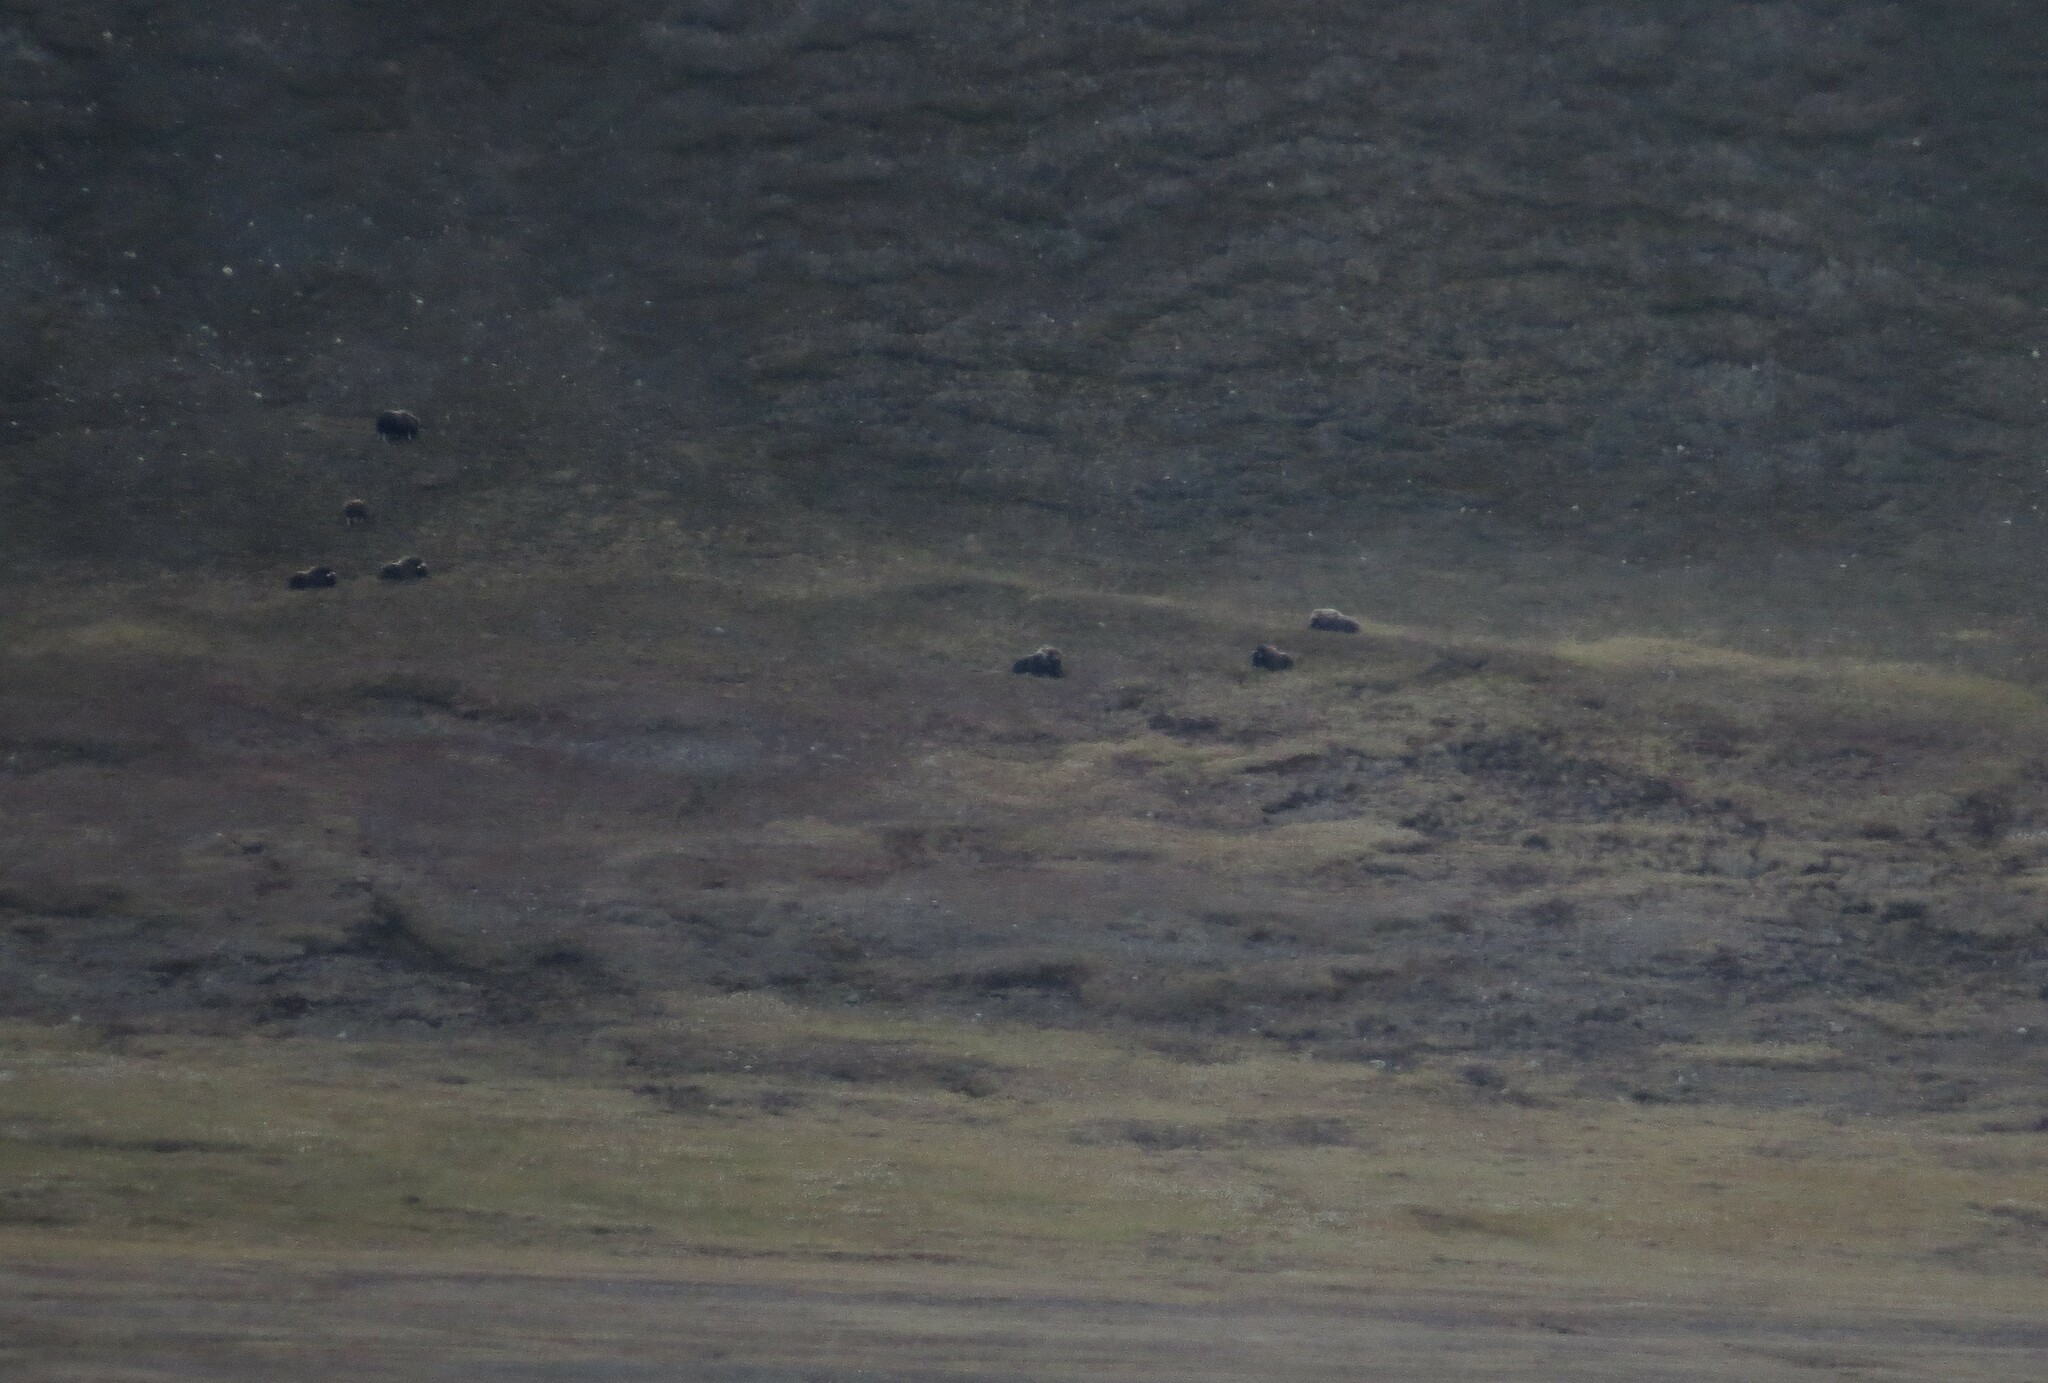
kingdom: Animalia
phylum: Chordata
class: Mammalia
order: Artiodactyla
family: Bovidae
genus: Ovibos
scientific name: Ovibos moschatus
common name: Muskox
